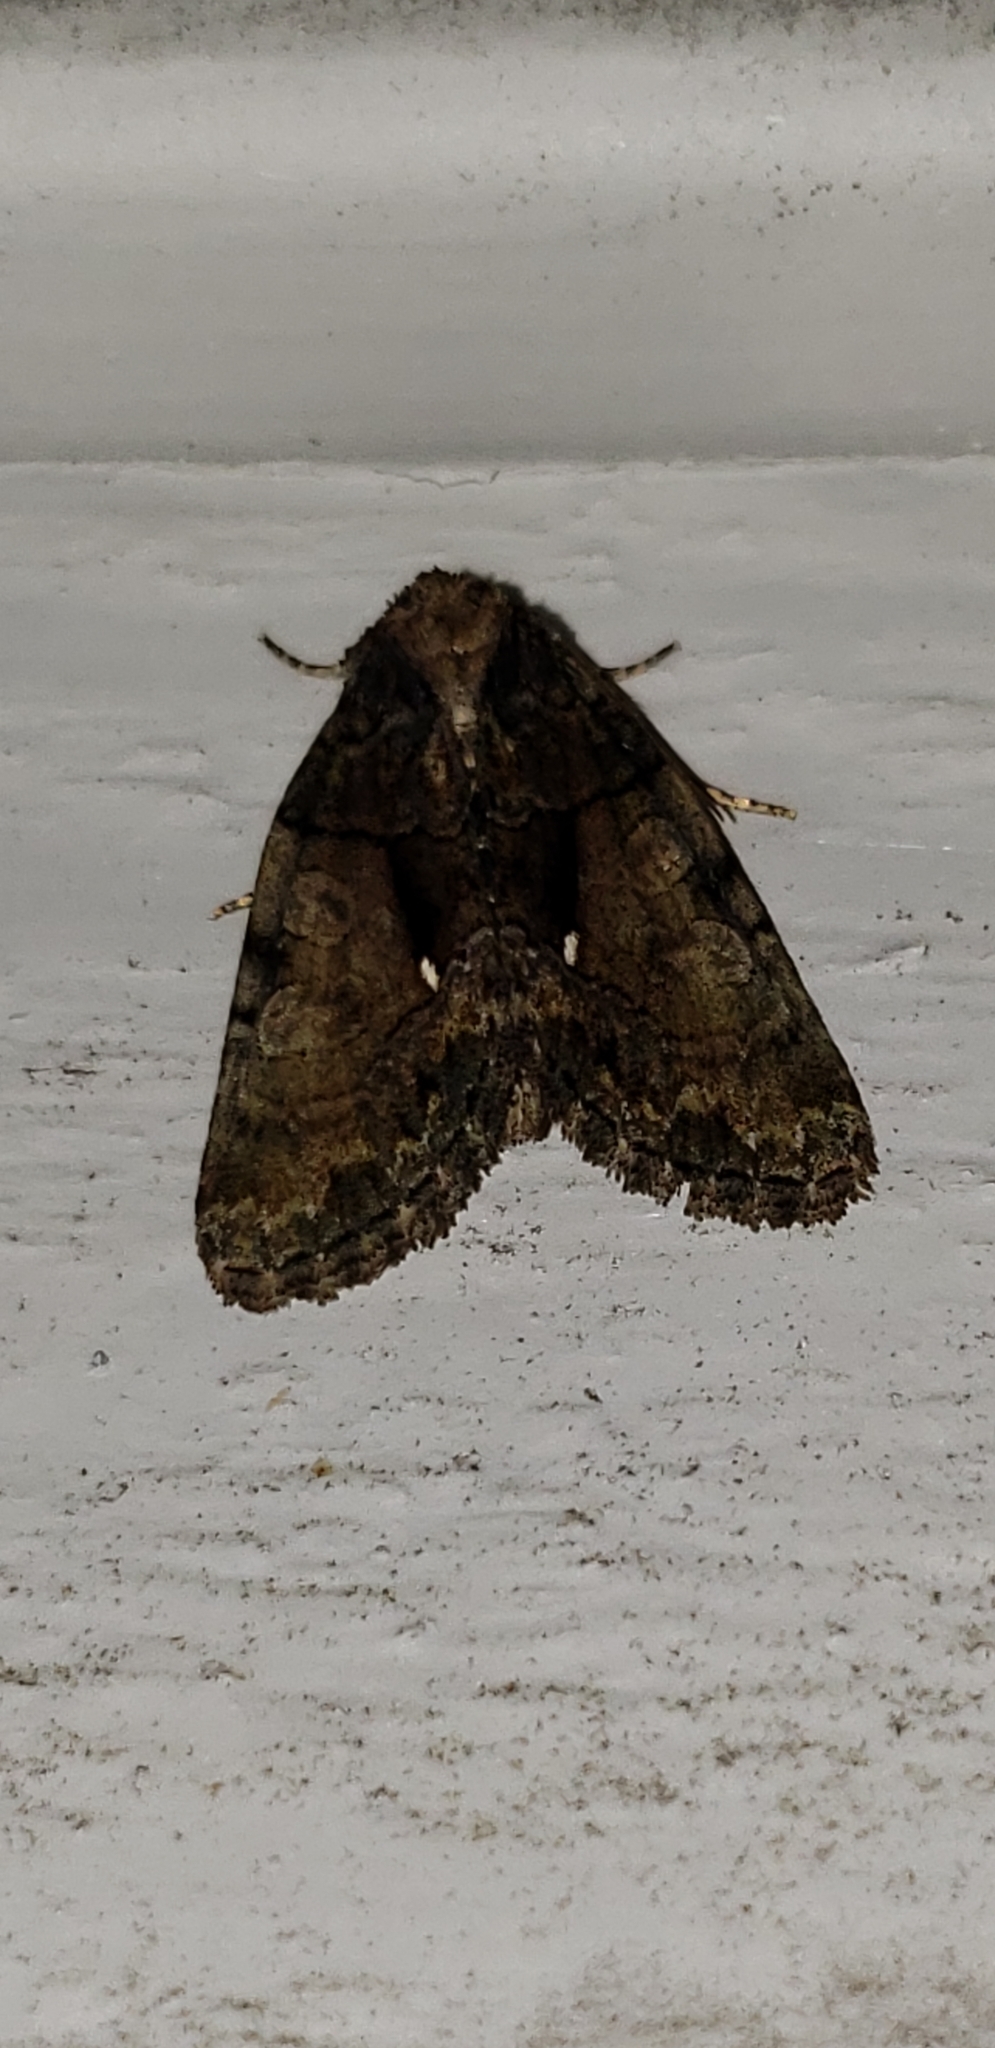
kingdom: Animalia
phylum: Arthropoda
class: Insecta
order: Lepidoptera
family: Noctuidae
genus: Chytonix
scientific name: Chytonix palliatricula
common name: Cloaked marvel
